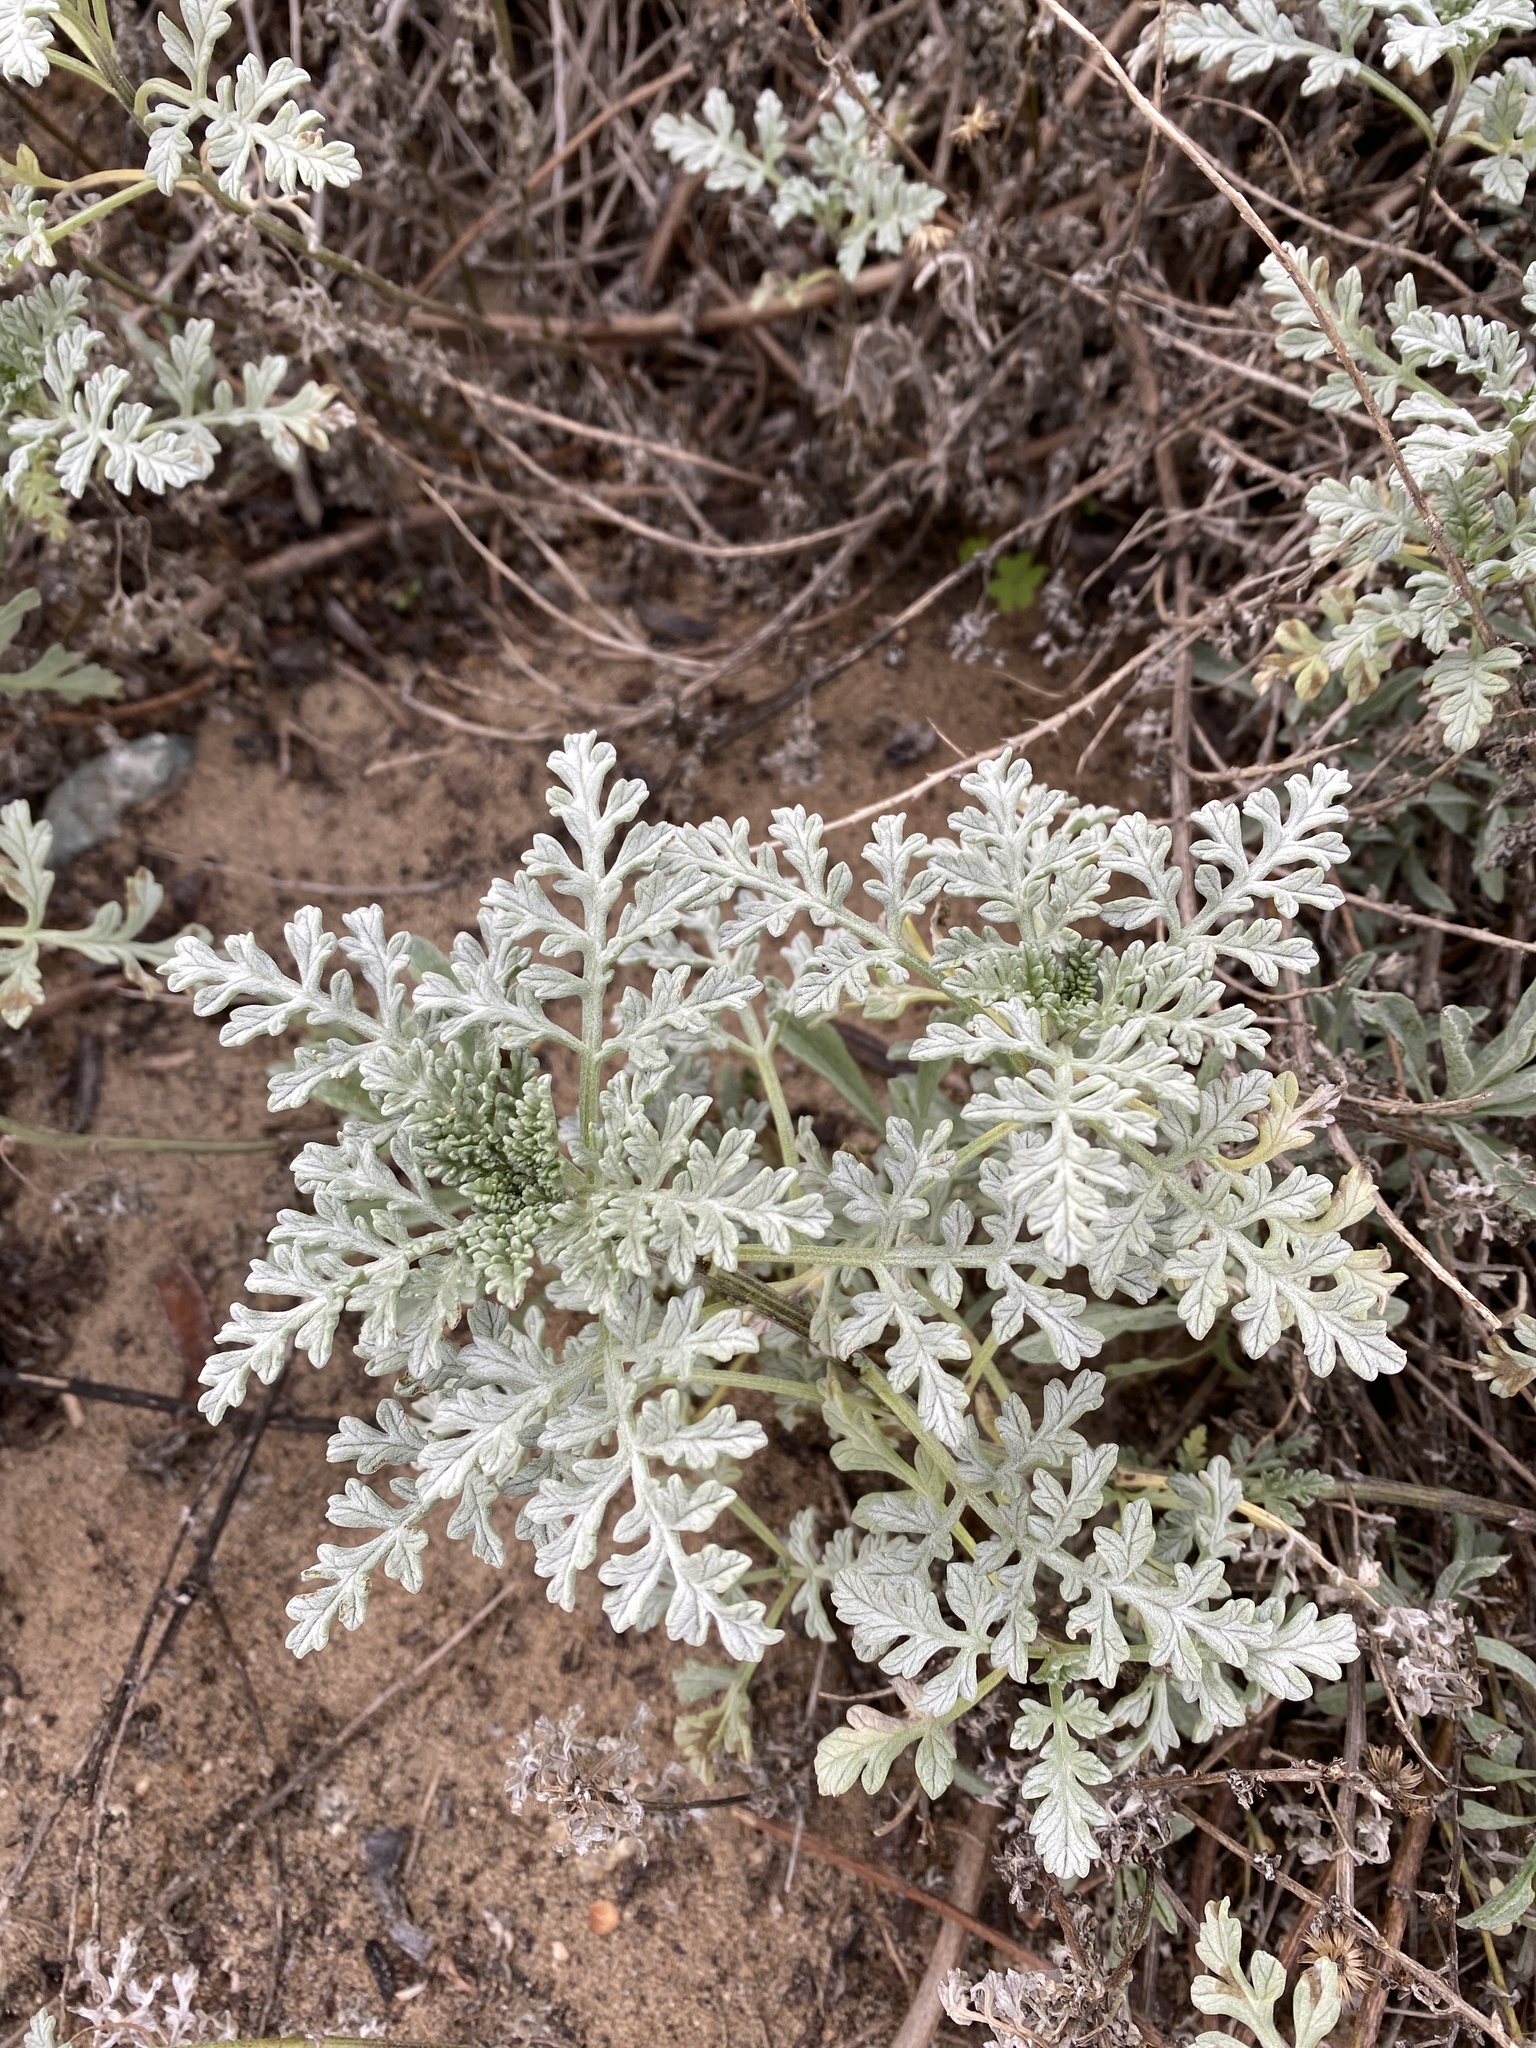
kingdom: Plantae
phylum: Tracheophyta
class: Magnoliopsida
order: Asterales
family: Asteraceae
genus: Ambrosia
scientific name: Ambrosia chamissonis
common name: Beachbur
